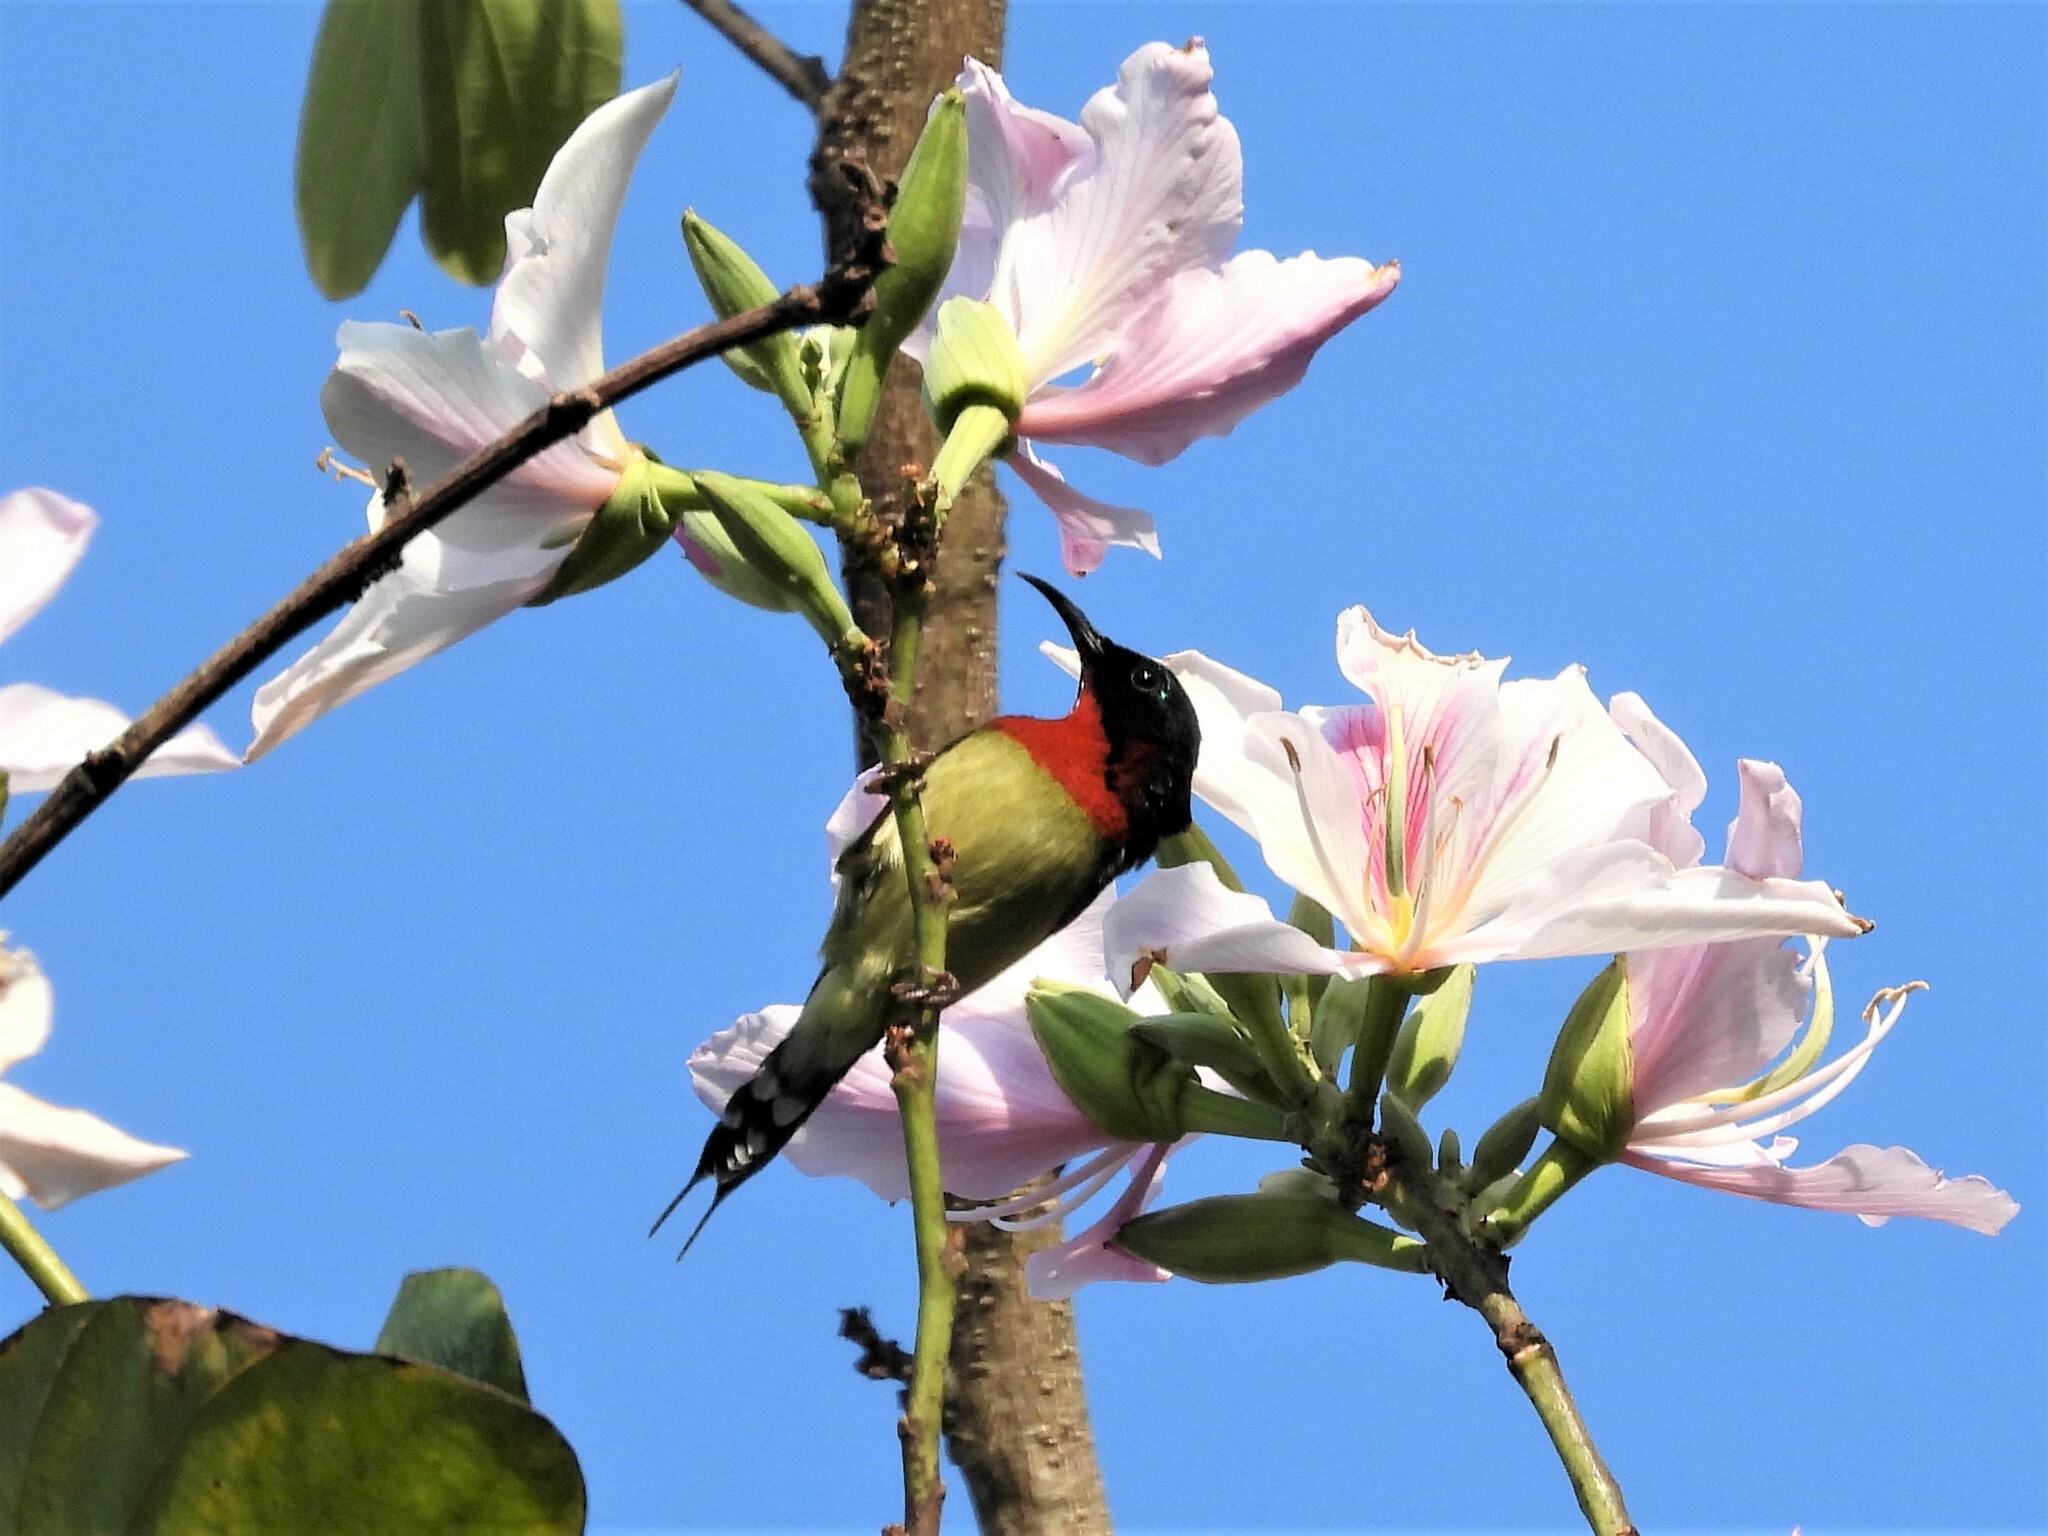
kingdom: Animalia
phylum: Chordata
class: Aves
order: Passeriformes
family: Nectariniidae
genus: Aethopyga
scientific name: Aethopyga christinae
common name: Fork-tailed sunbird
